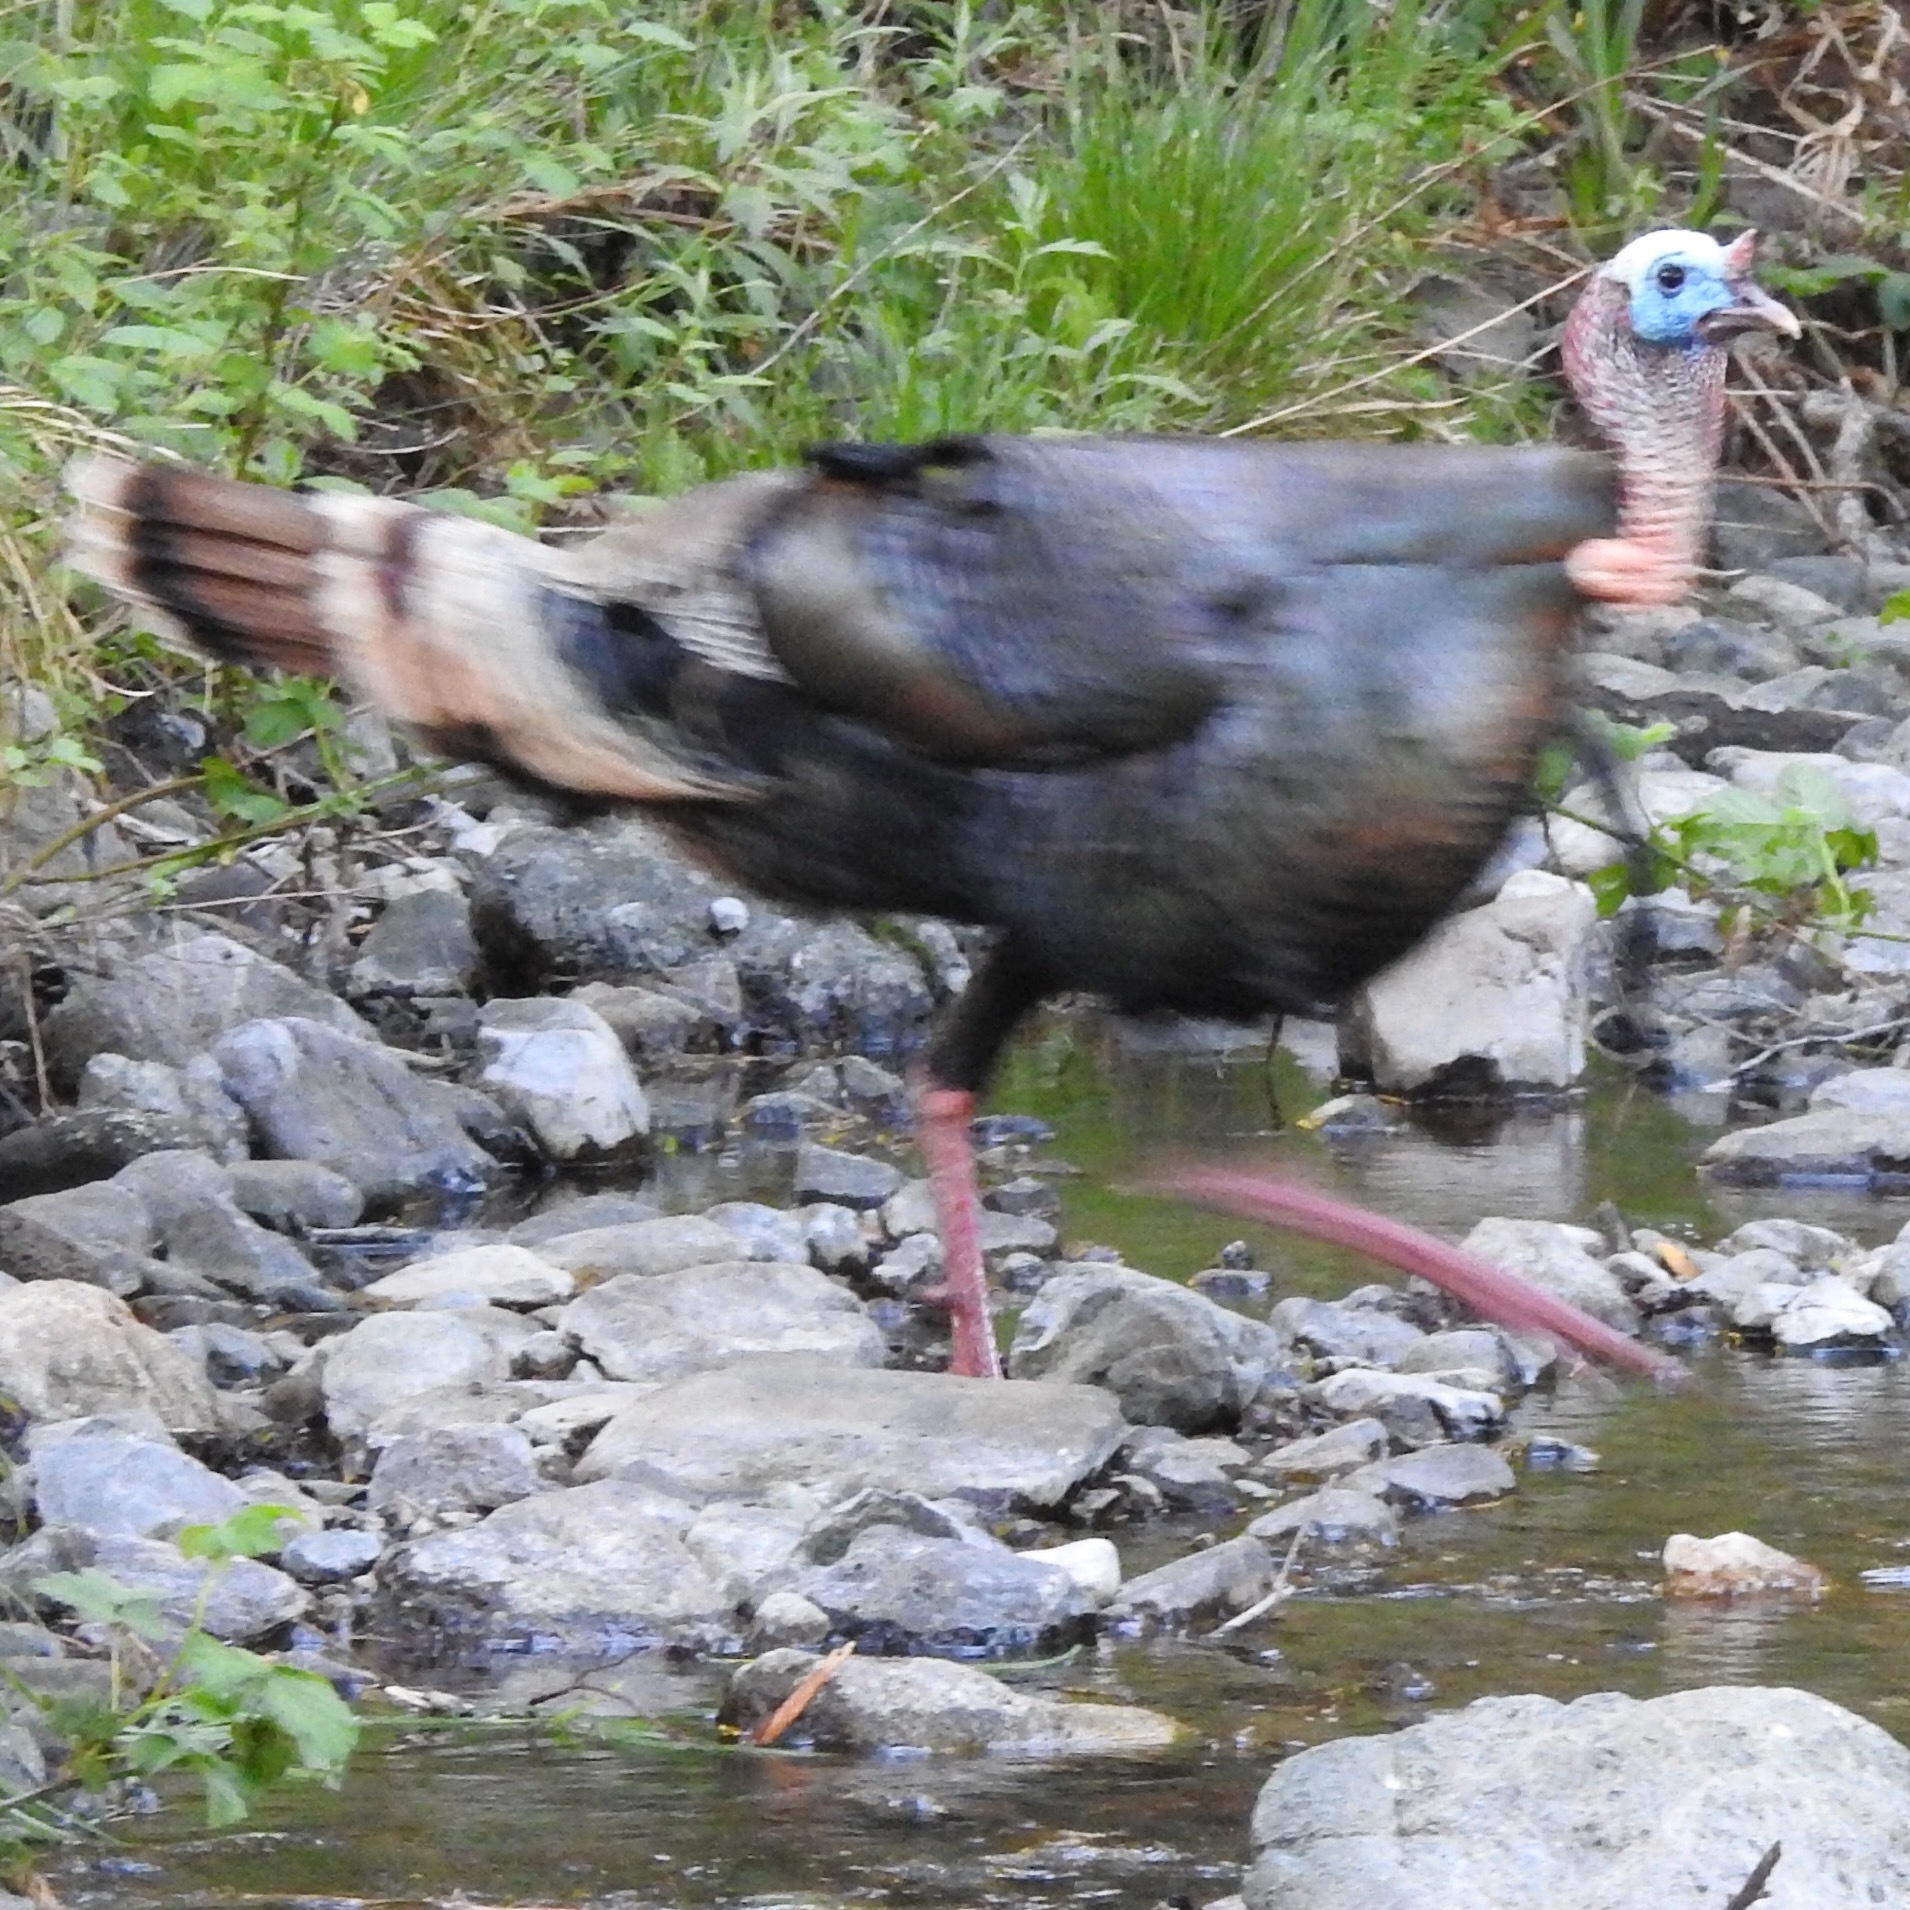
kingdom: Animalia
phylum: Chordata
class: Aves
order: Galliformes
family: Phasianidae
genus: Meleagris
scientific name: Meleagris gallopavo
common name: Wild turkey
